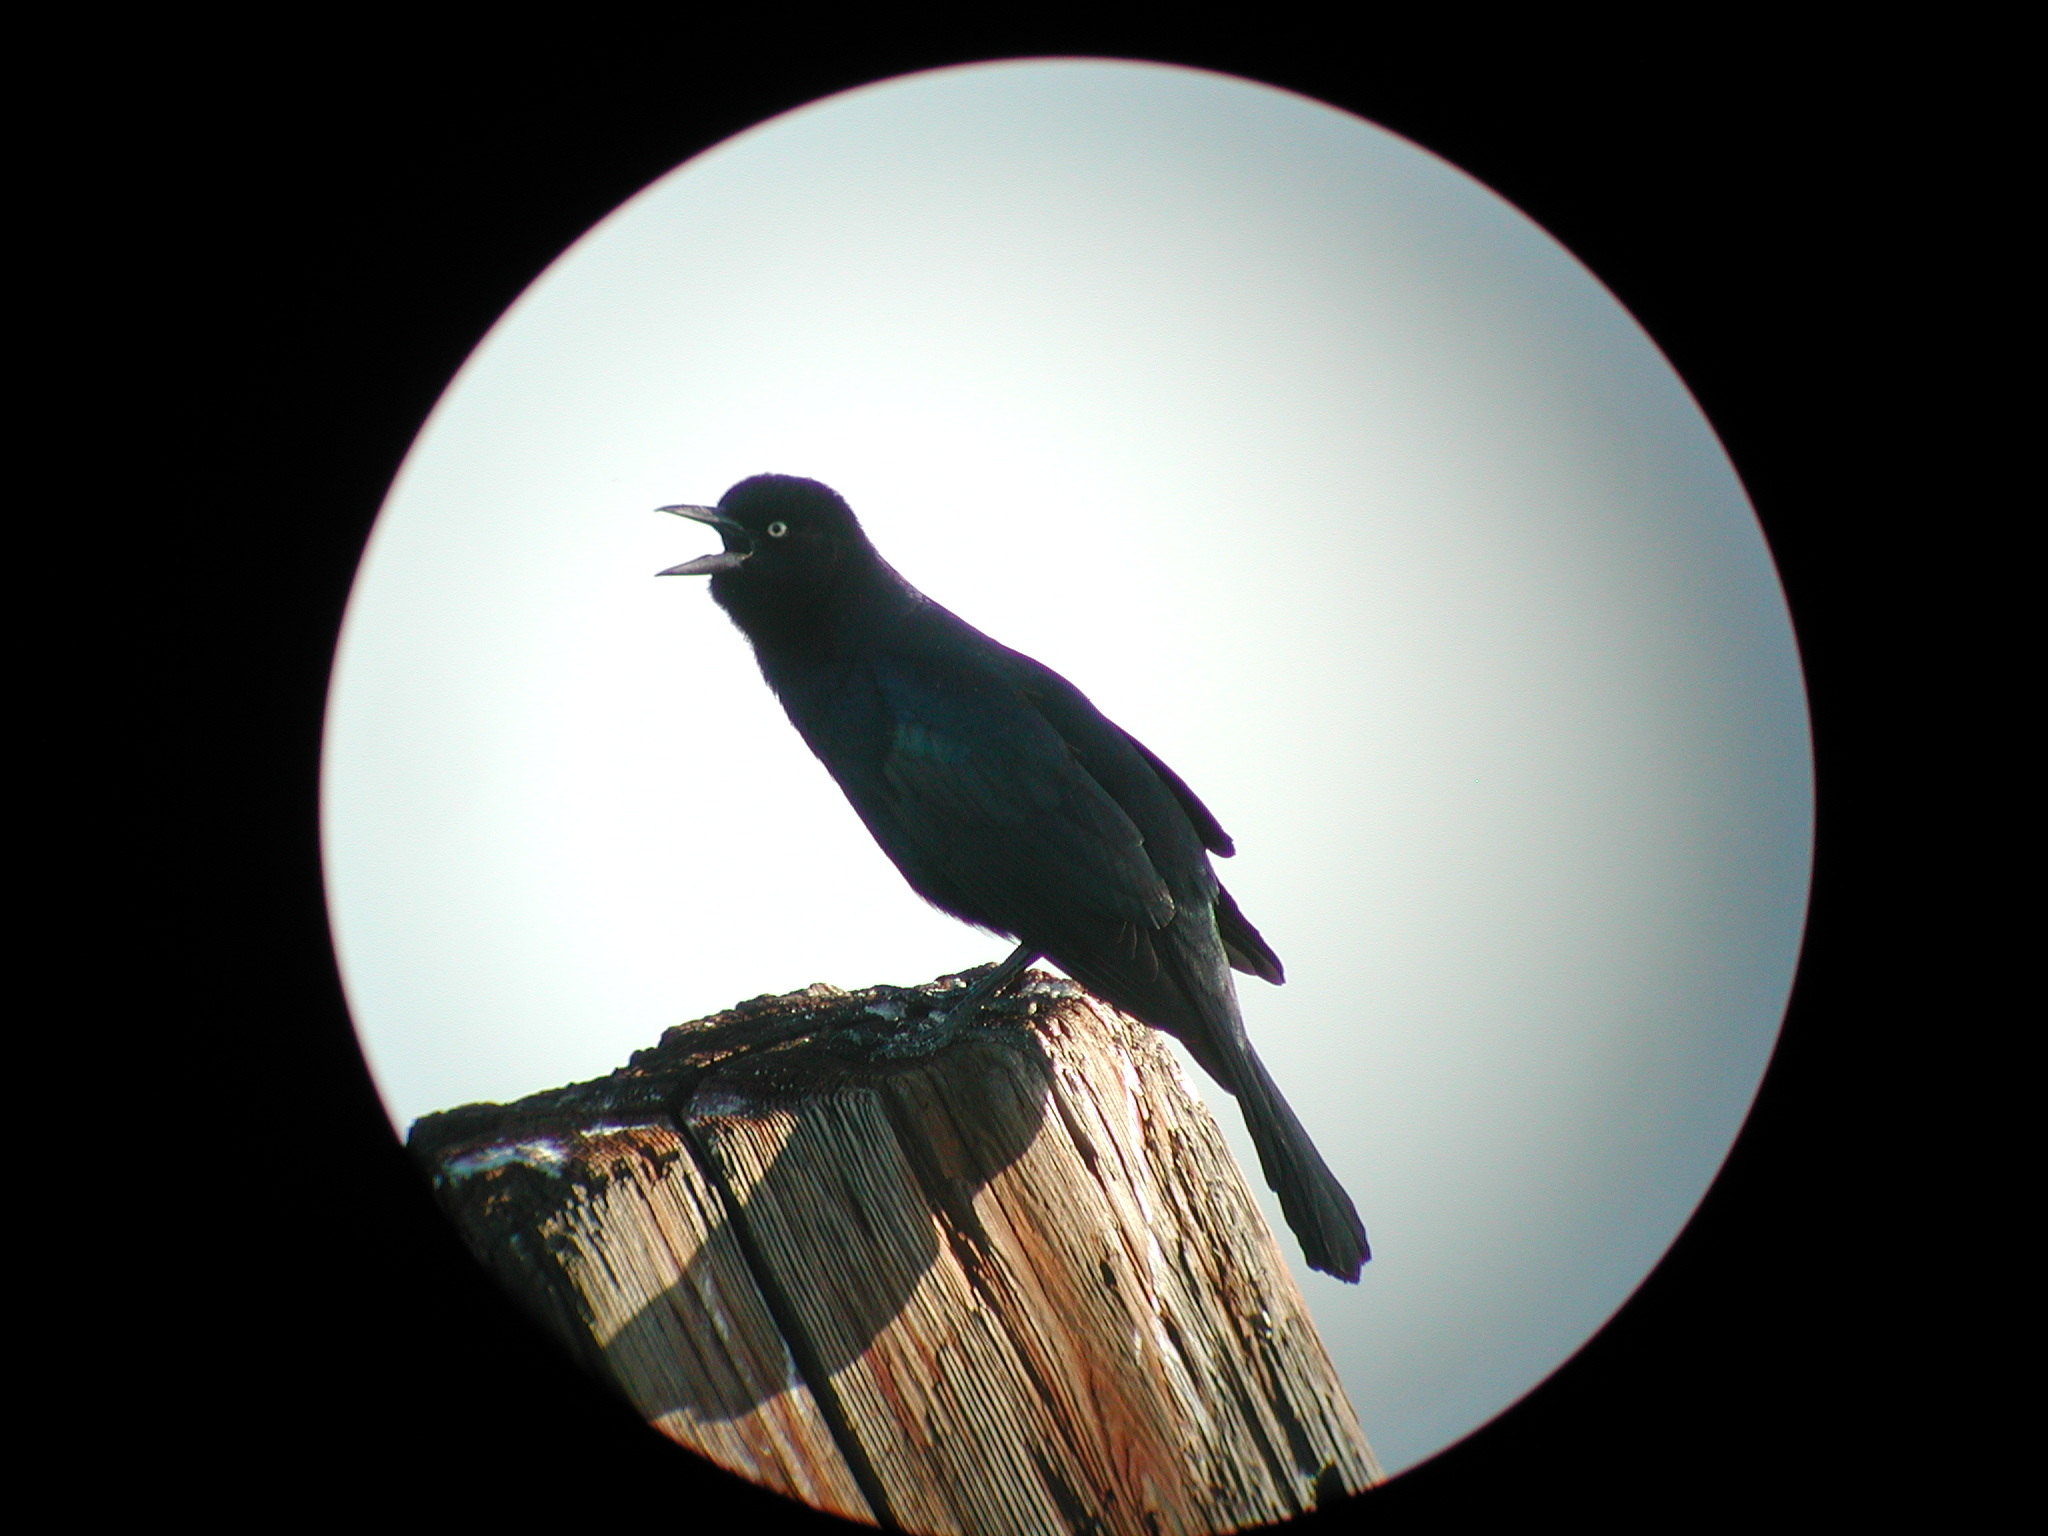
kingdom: Animalia
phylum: Chordata
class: Aves
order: Passeriformes
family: Icteridae
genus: Quiscalus
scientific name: Quiscalus quiscula
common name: Common grackle
